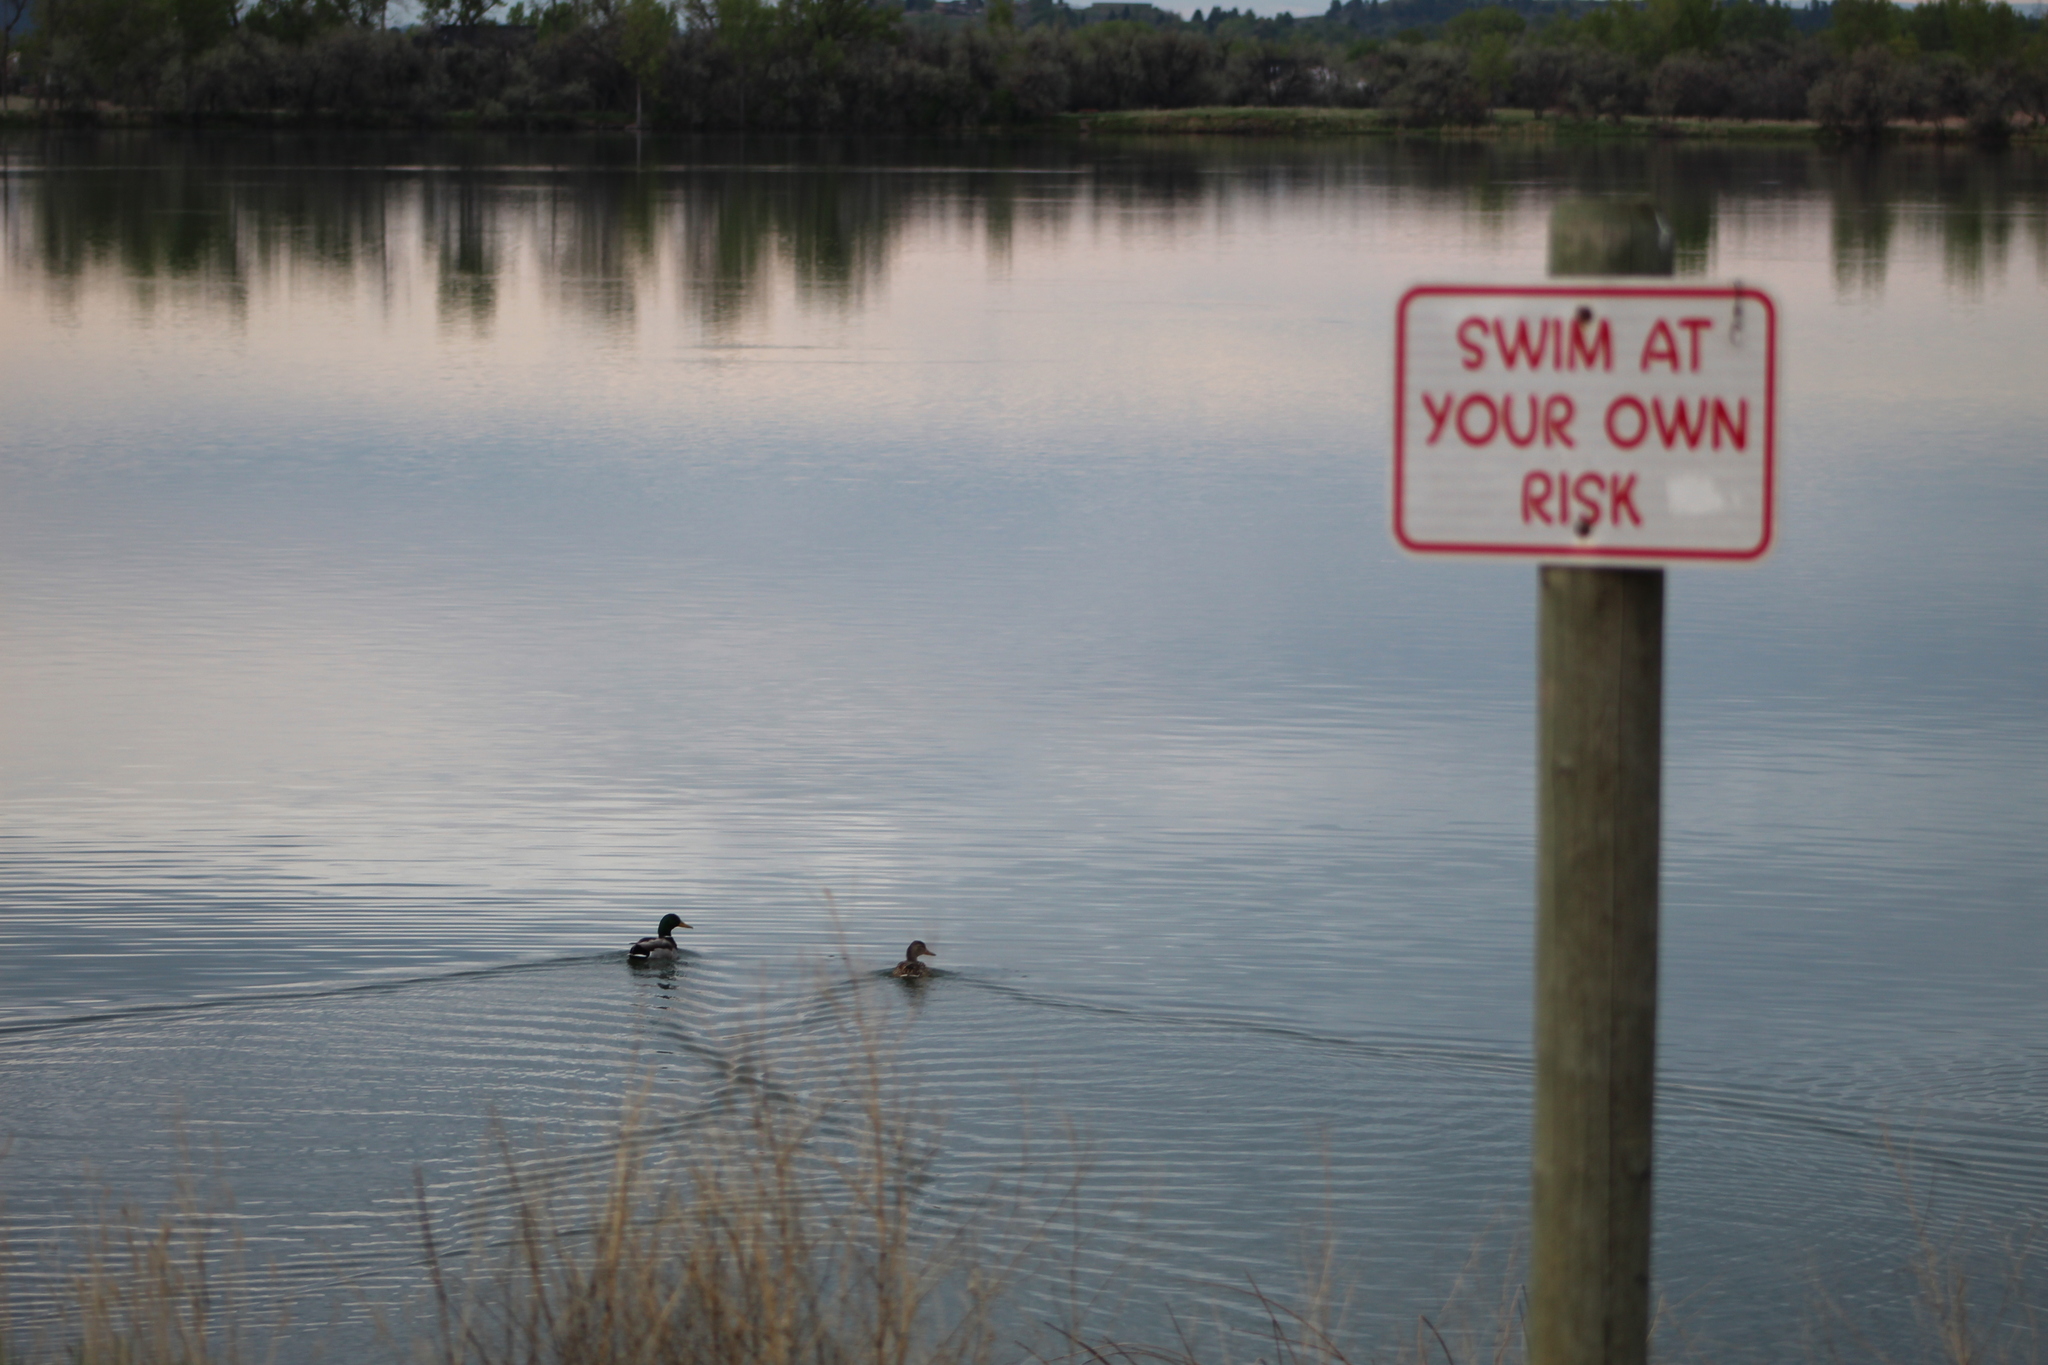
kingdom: Animalia
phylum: Chordata
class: Aves
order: Anseriformes
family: Anatidae
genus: Anas
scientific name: Anas platyrhynchos
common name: Mallard
